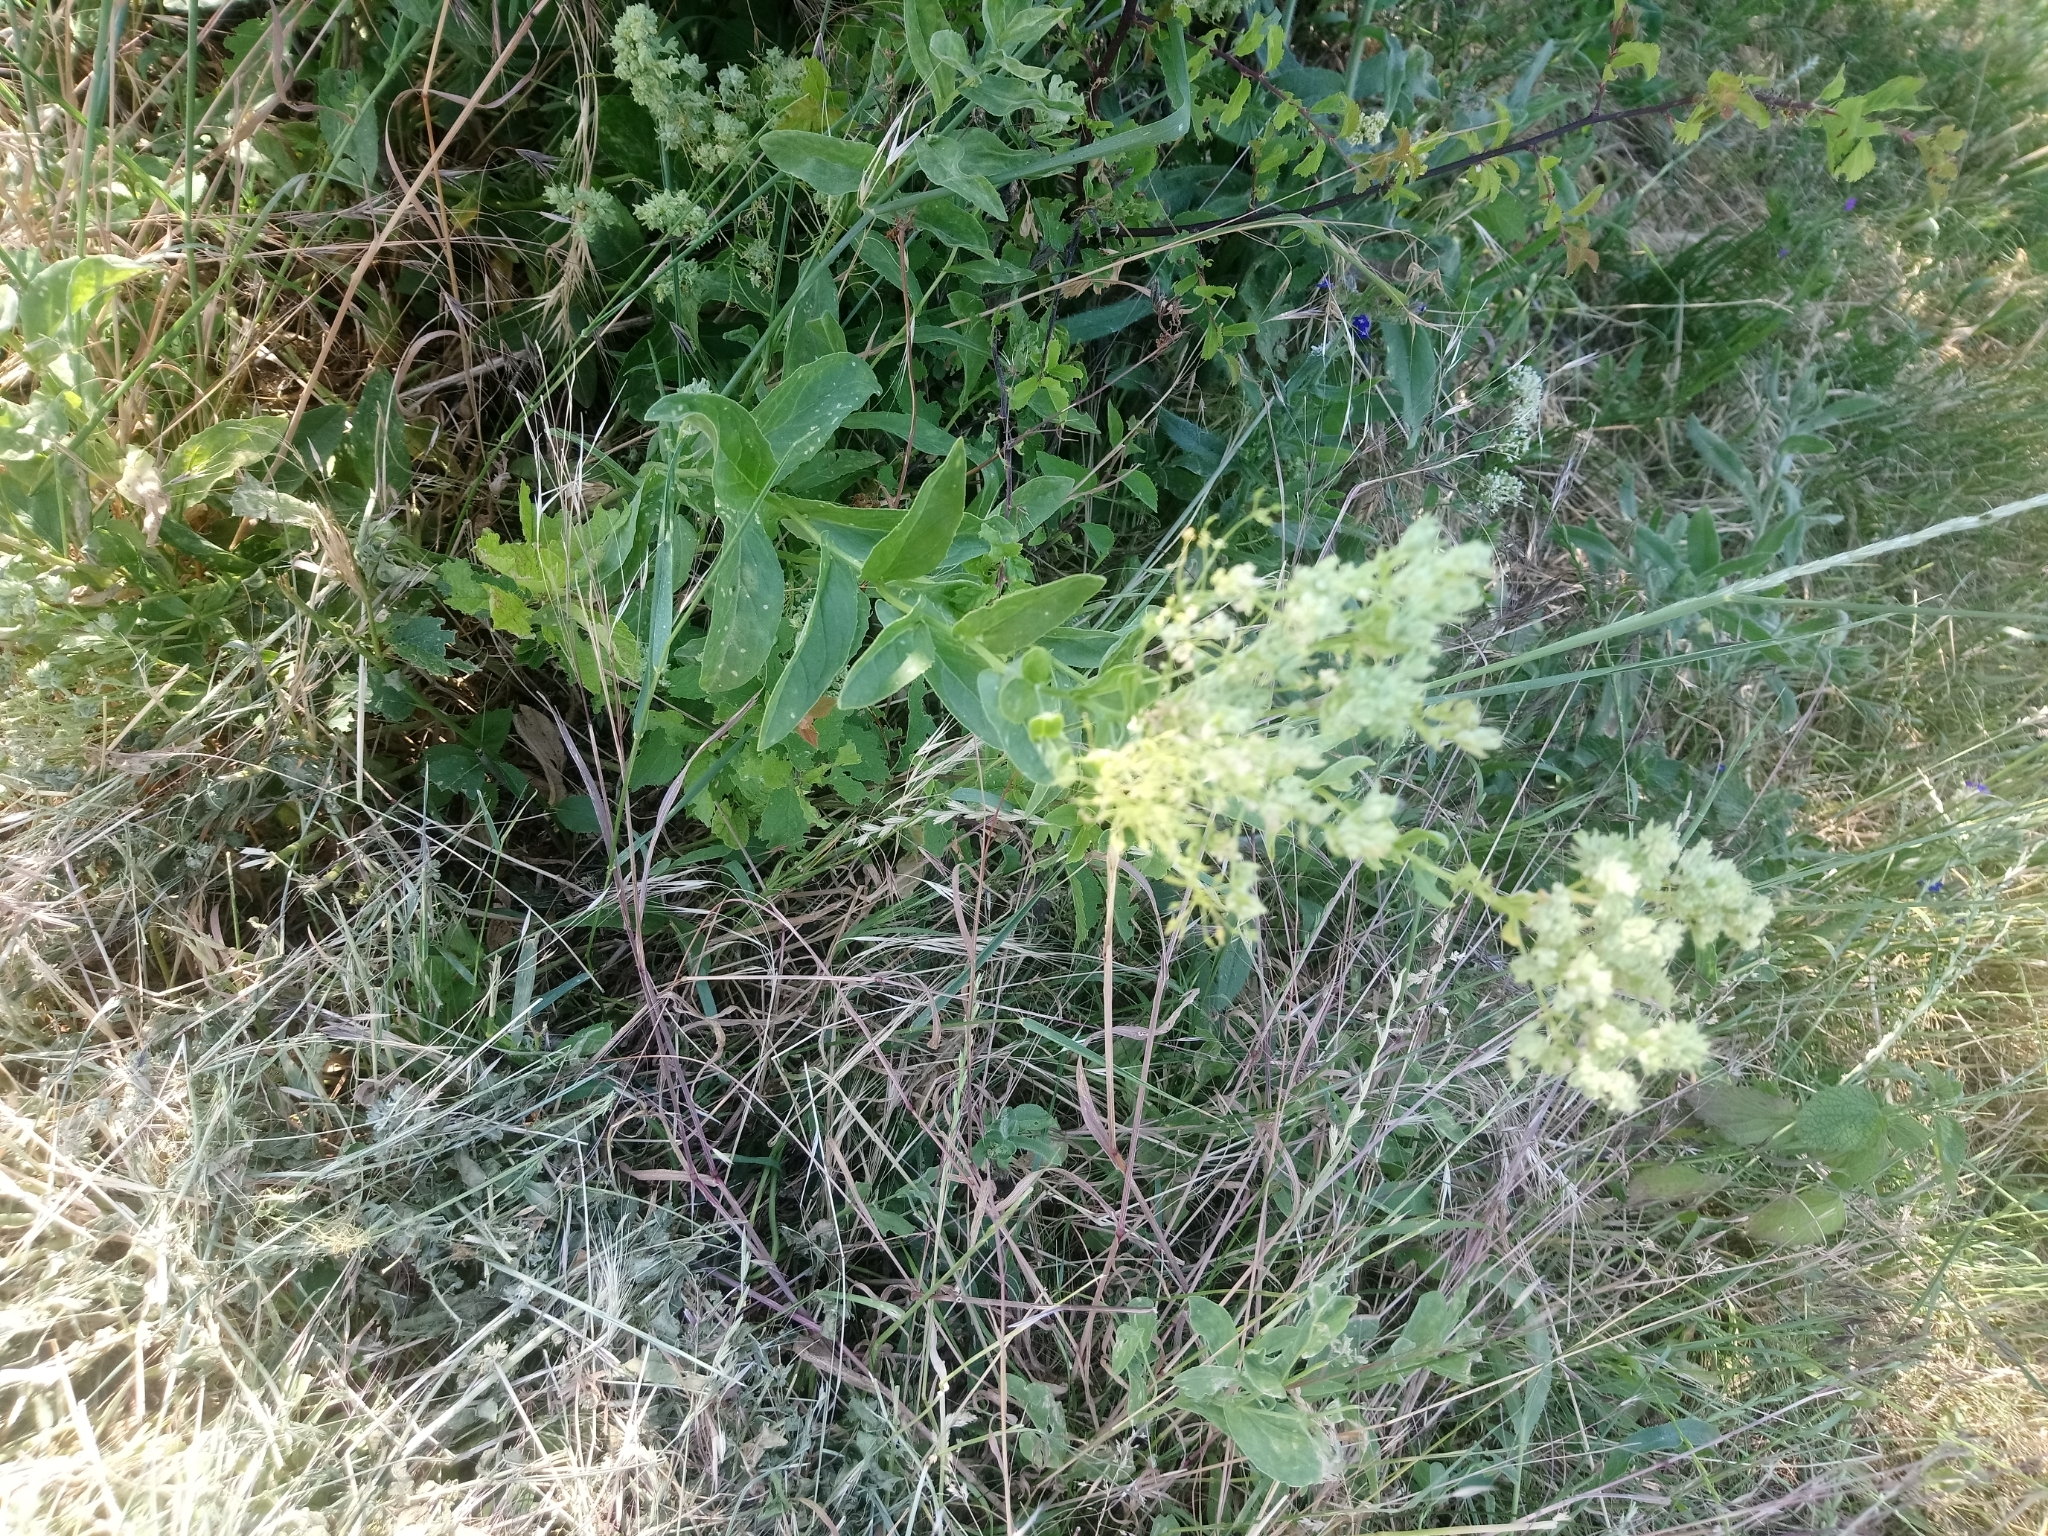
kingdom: Plantae
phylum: Tracheophyta
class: Magnoliopsida
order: Brassicales
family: Brassicaceae
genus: Lepidium
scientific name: Lepidium draba
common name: Hoary cress
